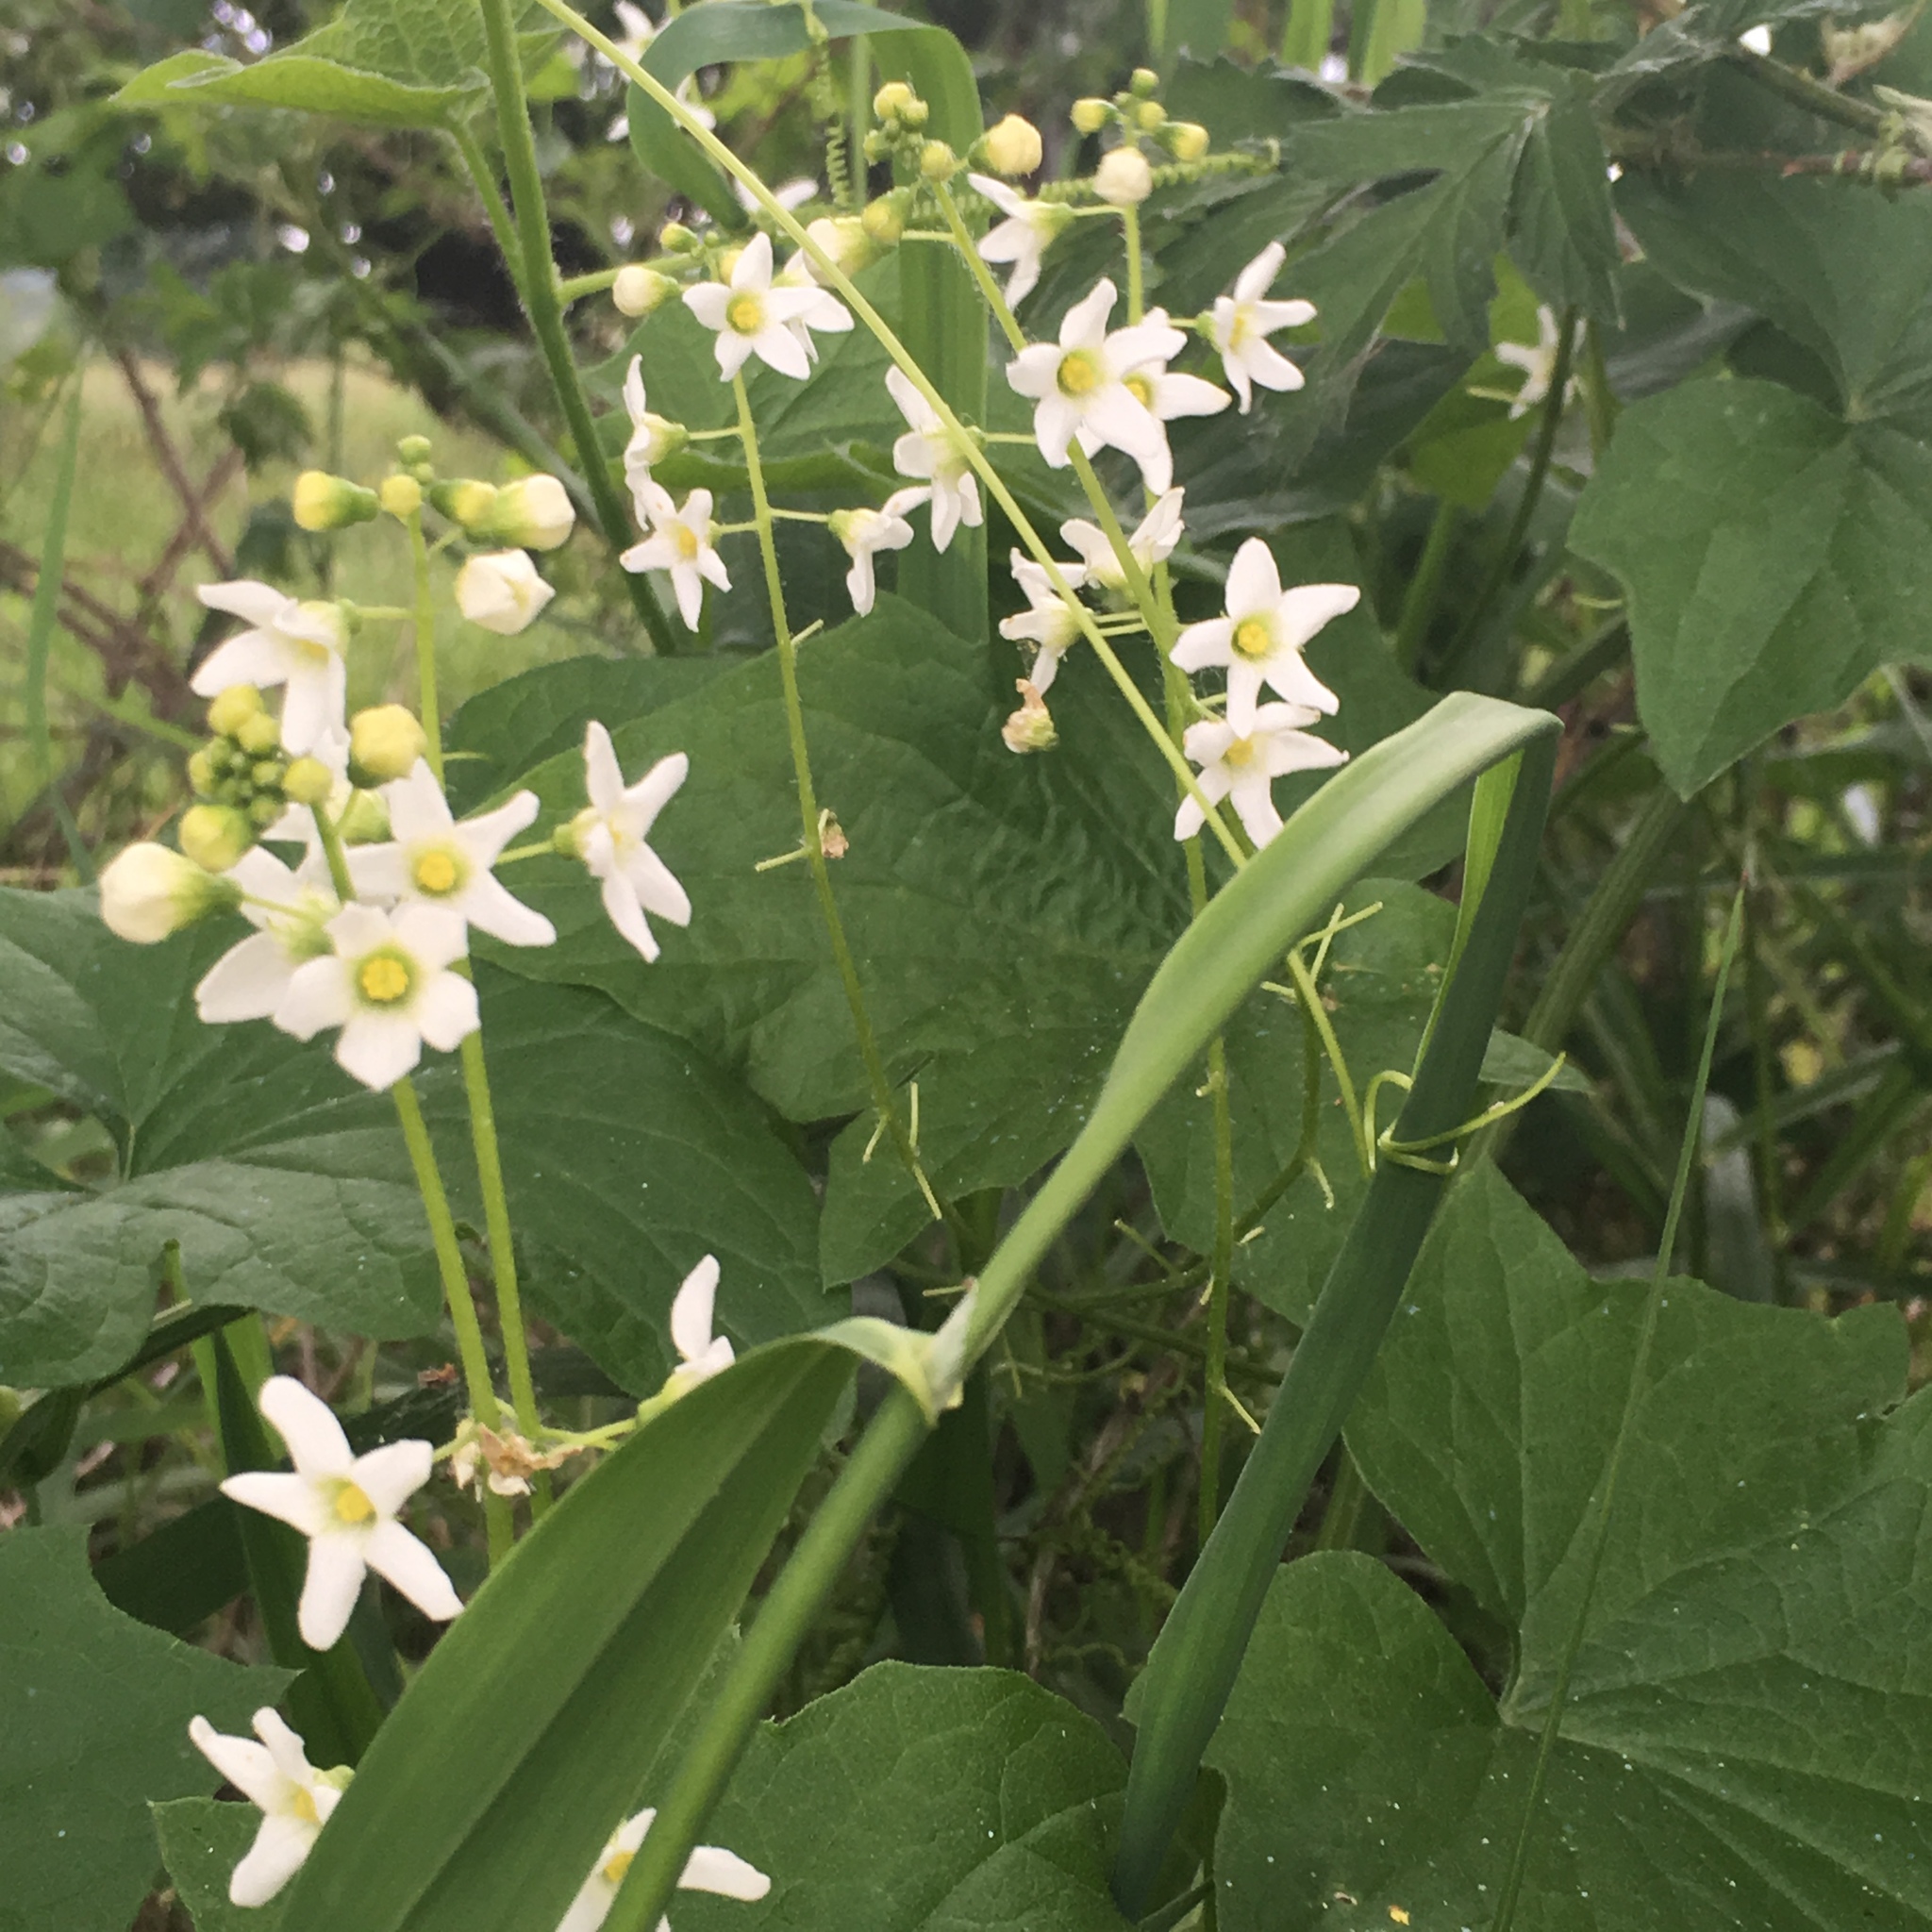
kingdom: Plantae
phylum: Tracheophyta
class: Magnoliopsida
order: Cucurbitales
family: Cucurbitaceae
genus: Marah
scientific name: Marah oregana
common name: Coastal manroot
